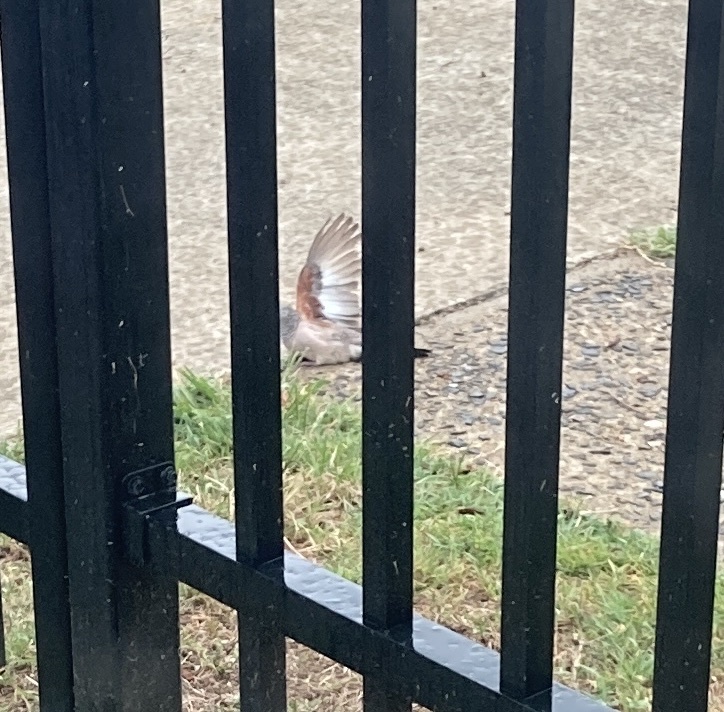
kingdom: Animalia
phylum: Chordata
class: Aves
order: Columbiformes
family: Columbidae
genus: Geopelia
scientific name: Geopelia placida
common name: Peaceful dove
